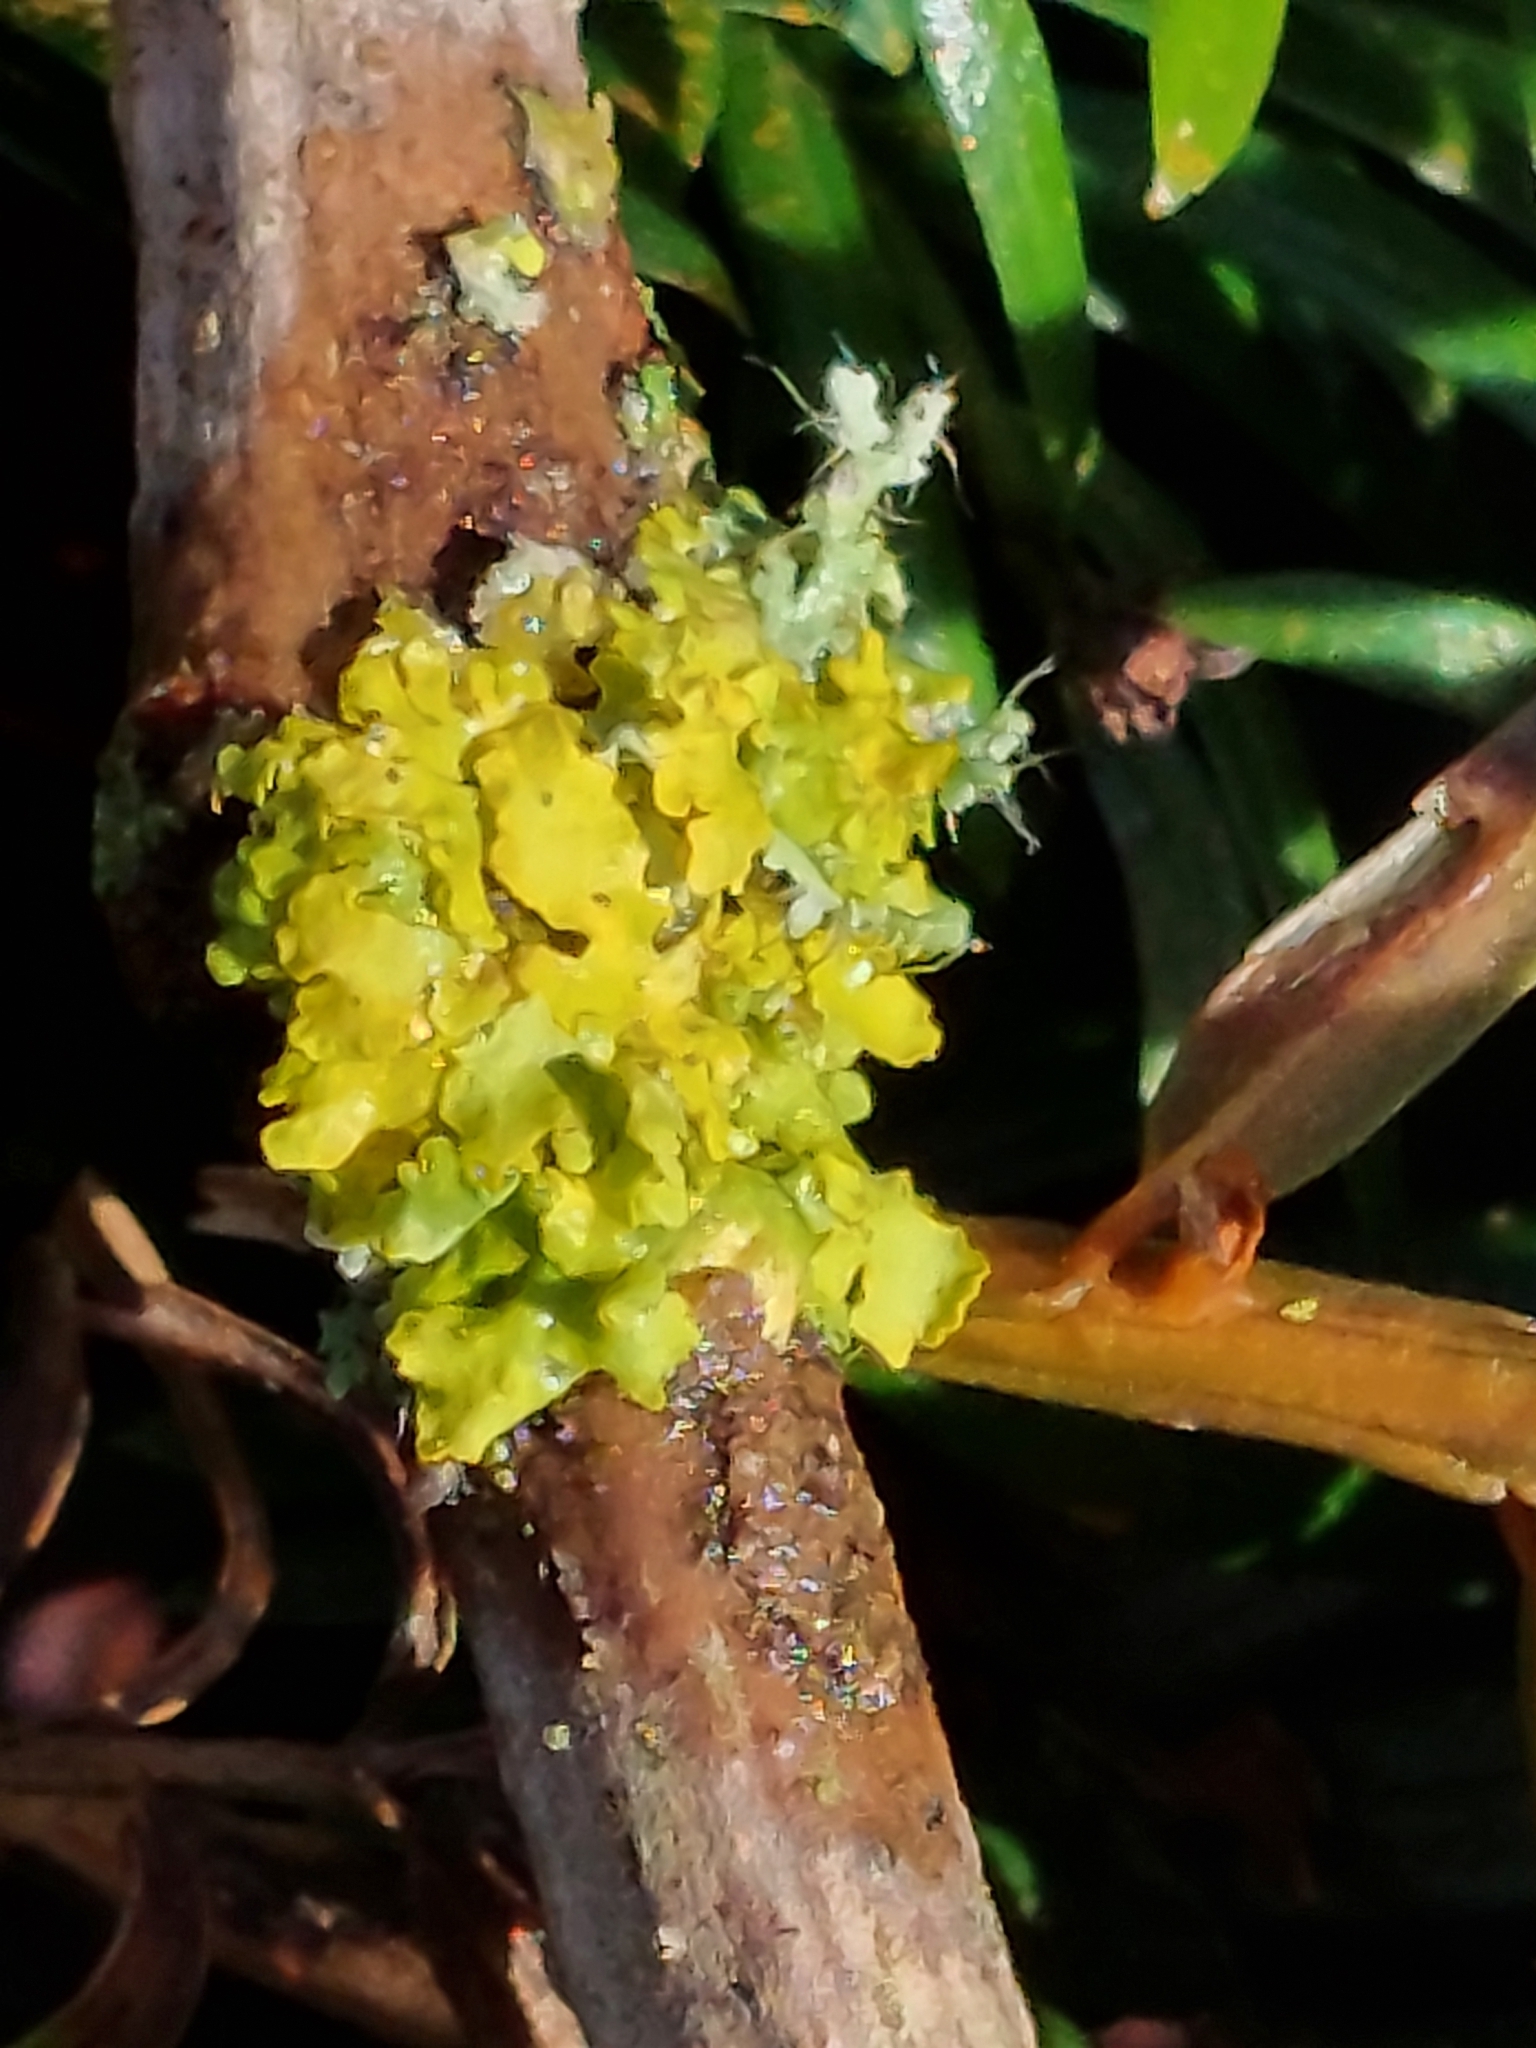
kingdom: Fungi
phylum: Ascomycota
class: Lecanoromycetes
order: Teloschistales
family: Teloschistaceae
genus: Xanthoria
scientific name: Xanthoria parietina
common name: Common orange lichen
